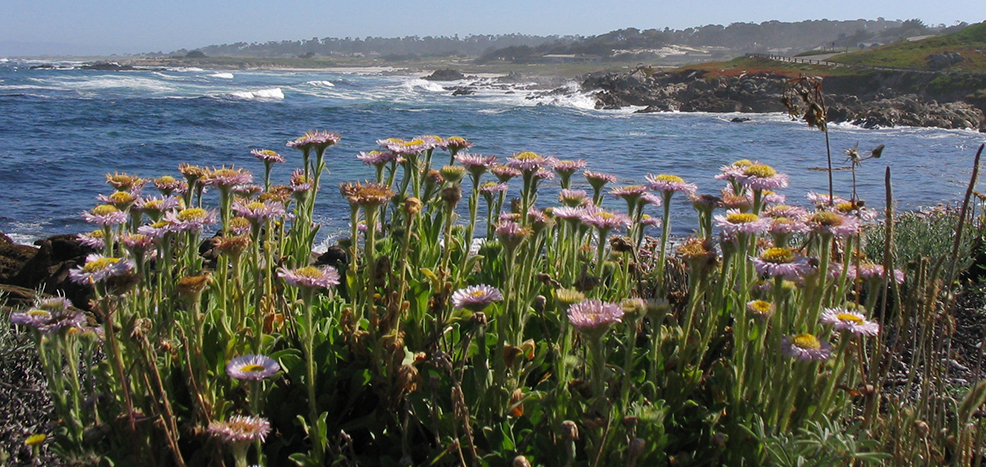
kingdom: Plantae
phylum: Tracheophyta
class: Magnoliopsida
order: Asterales
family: Asteraceae
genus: Erigeron
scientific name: Erigeron glaucus
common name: Seaside daisy
